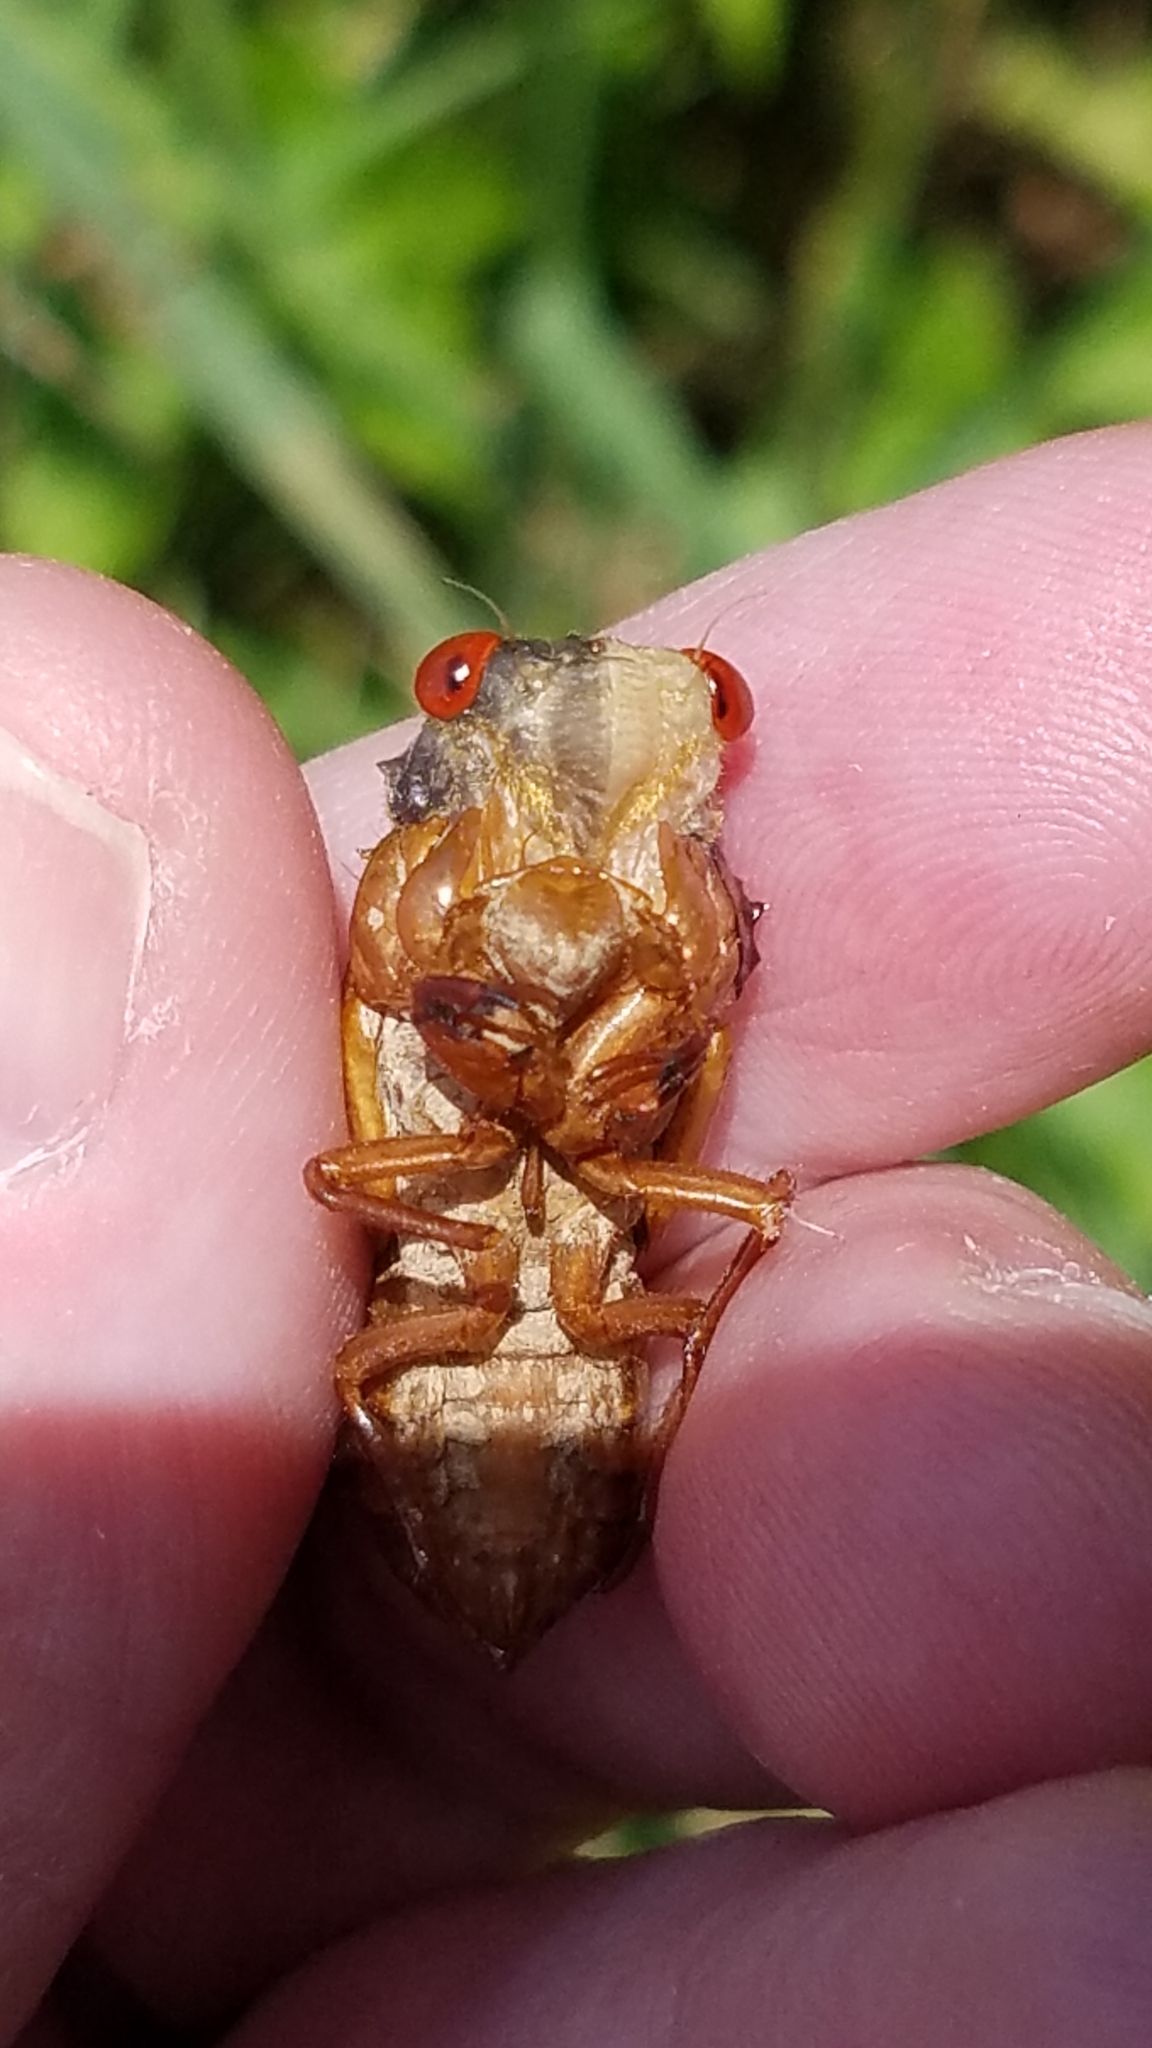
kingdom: Animalia
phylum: Arthropoda
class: Insecta
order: Hemiptera
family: Cicadidae
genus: Magicicada
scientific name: Magicicada
